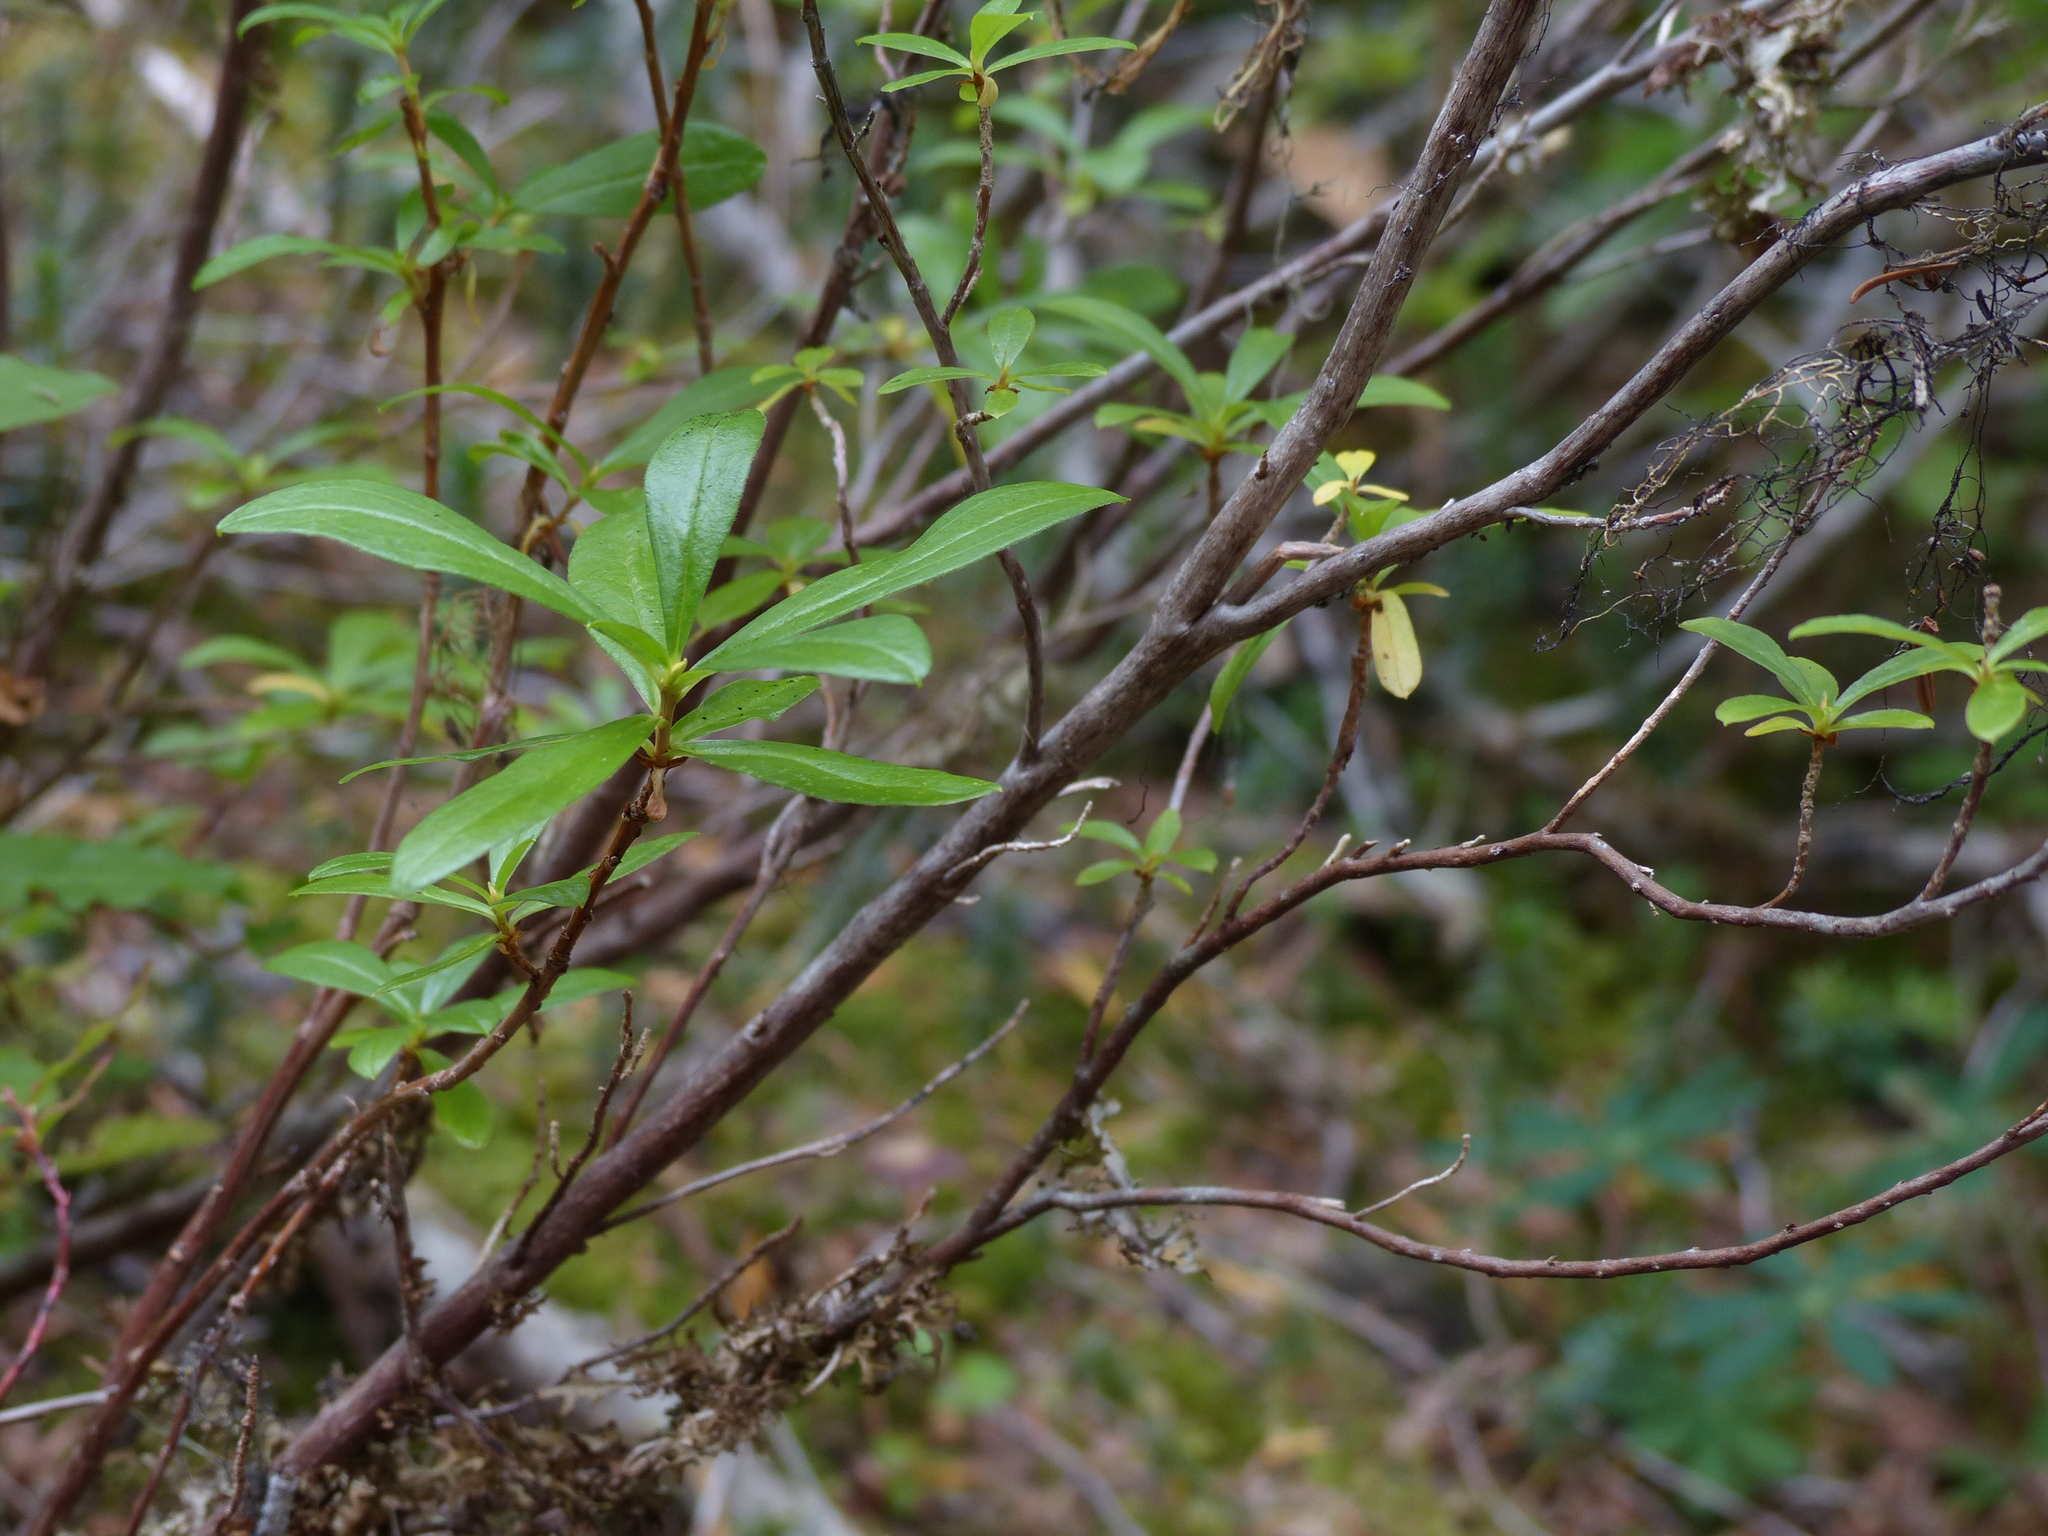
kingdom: Plantae
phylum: Tracheophyta
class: Magnoliopsida
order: Ericales
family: Ericaceae
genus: Elliottia
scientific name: Elliottia pyroliflora
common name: Copperbush
